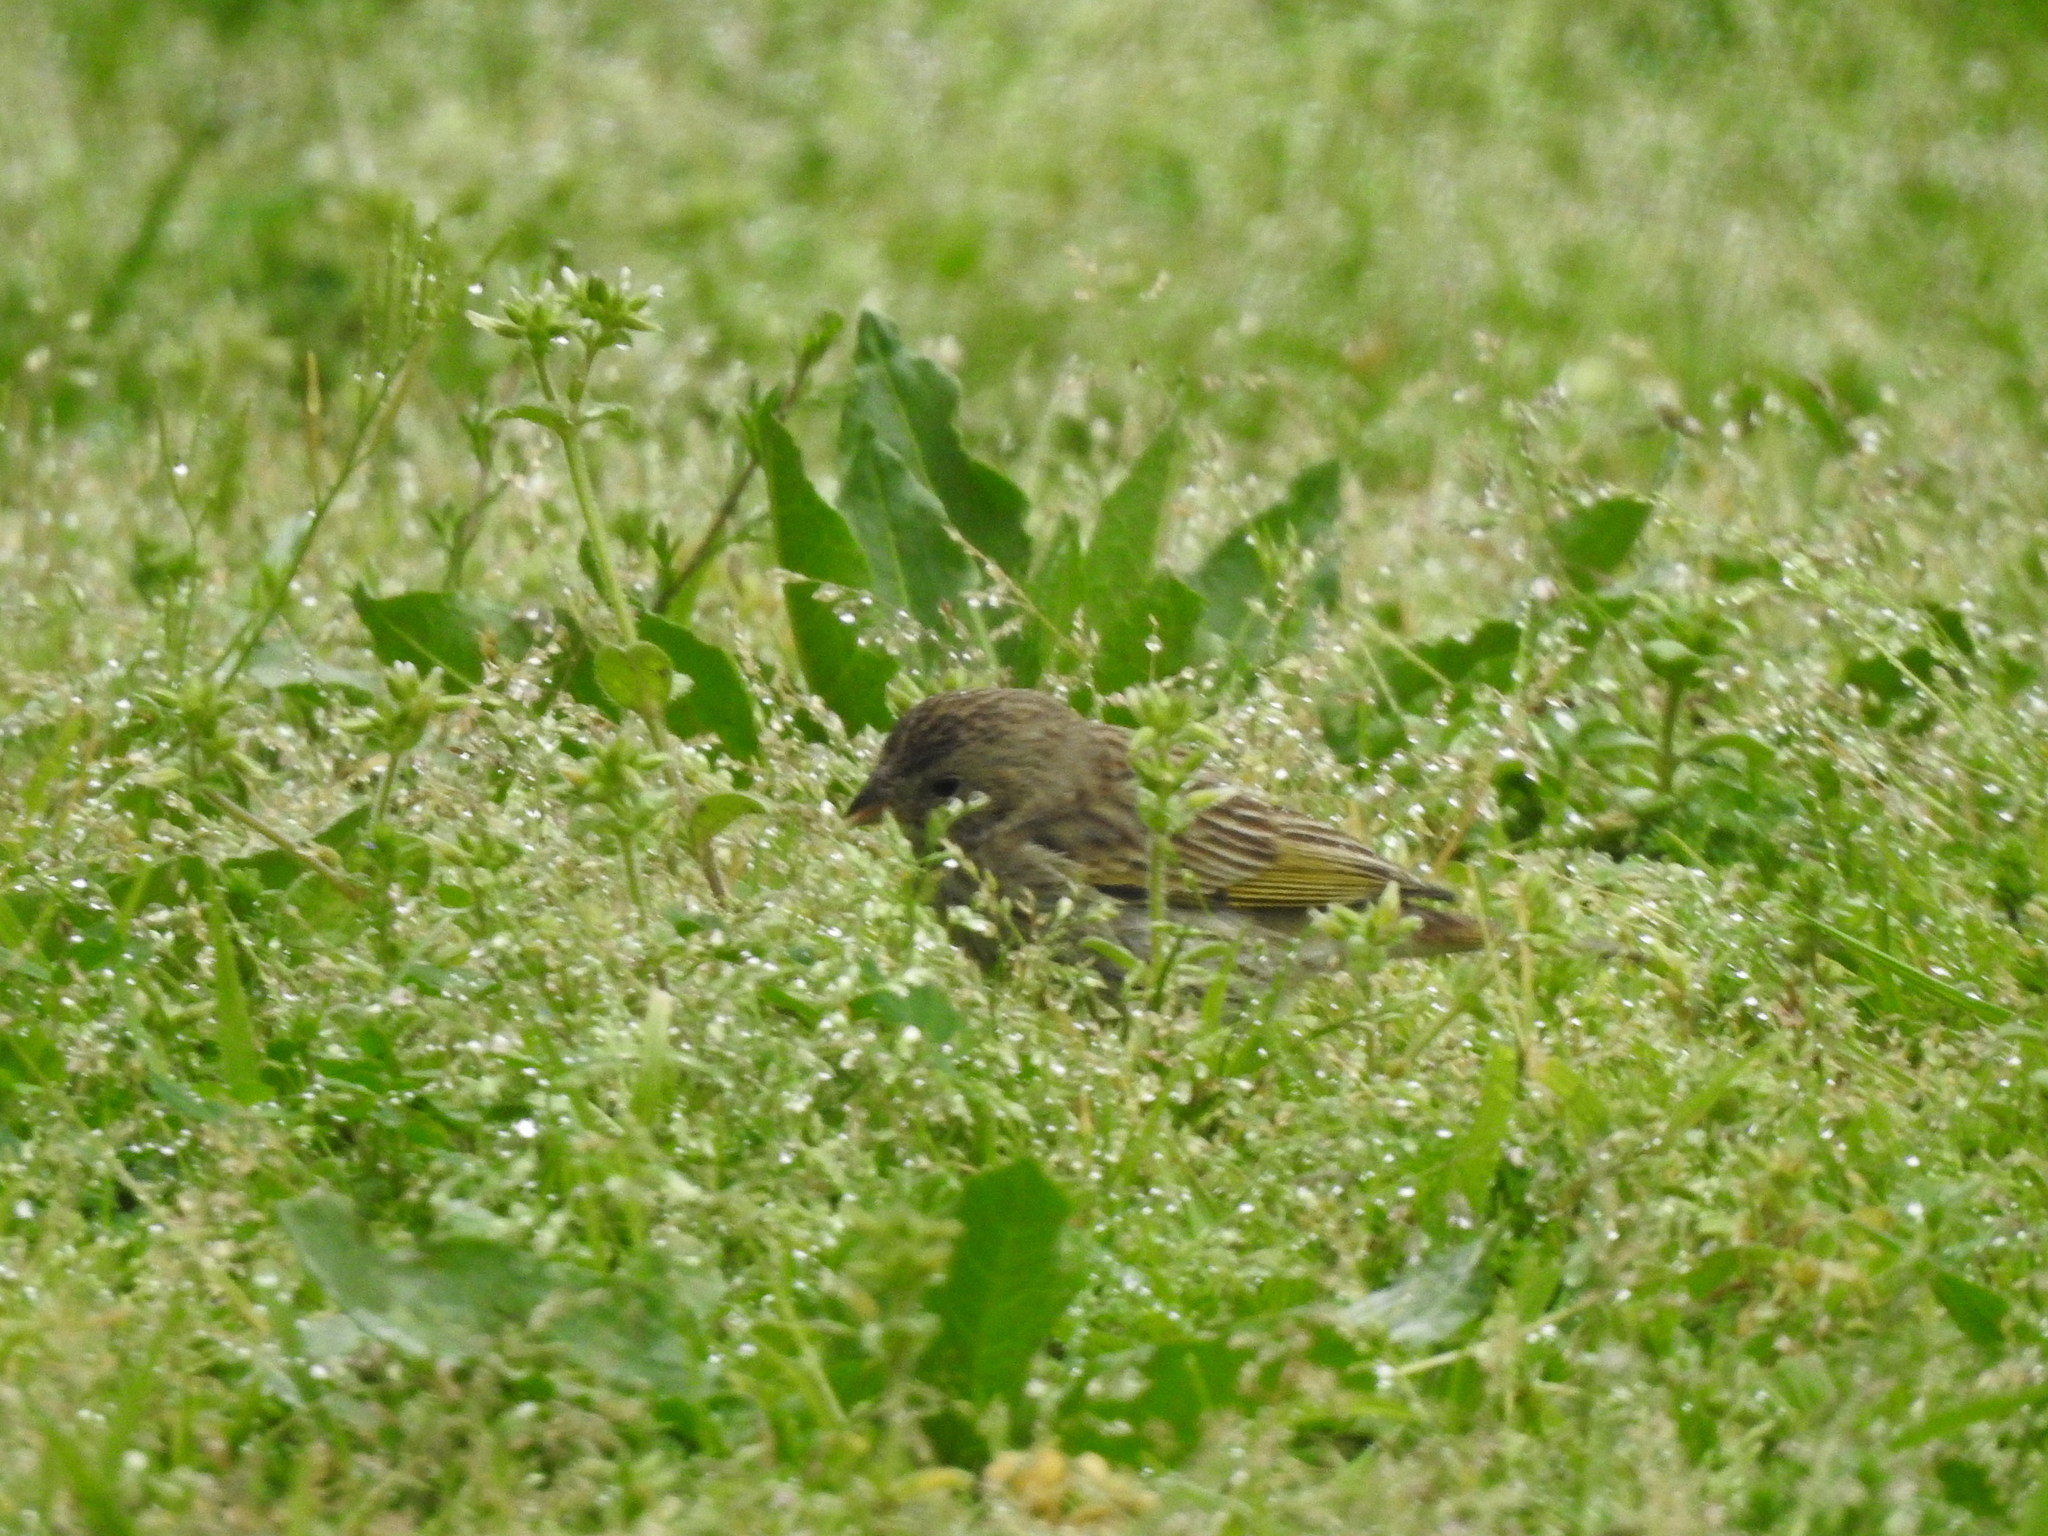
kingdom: Animalia
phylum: Chordata
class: Aves
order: Passeriformes
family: Thraupidae
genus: Sicalis
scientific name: Sicalis flaveola
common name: Saffron finch
